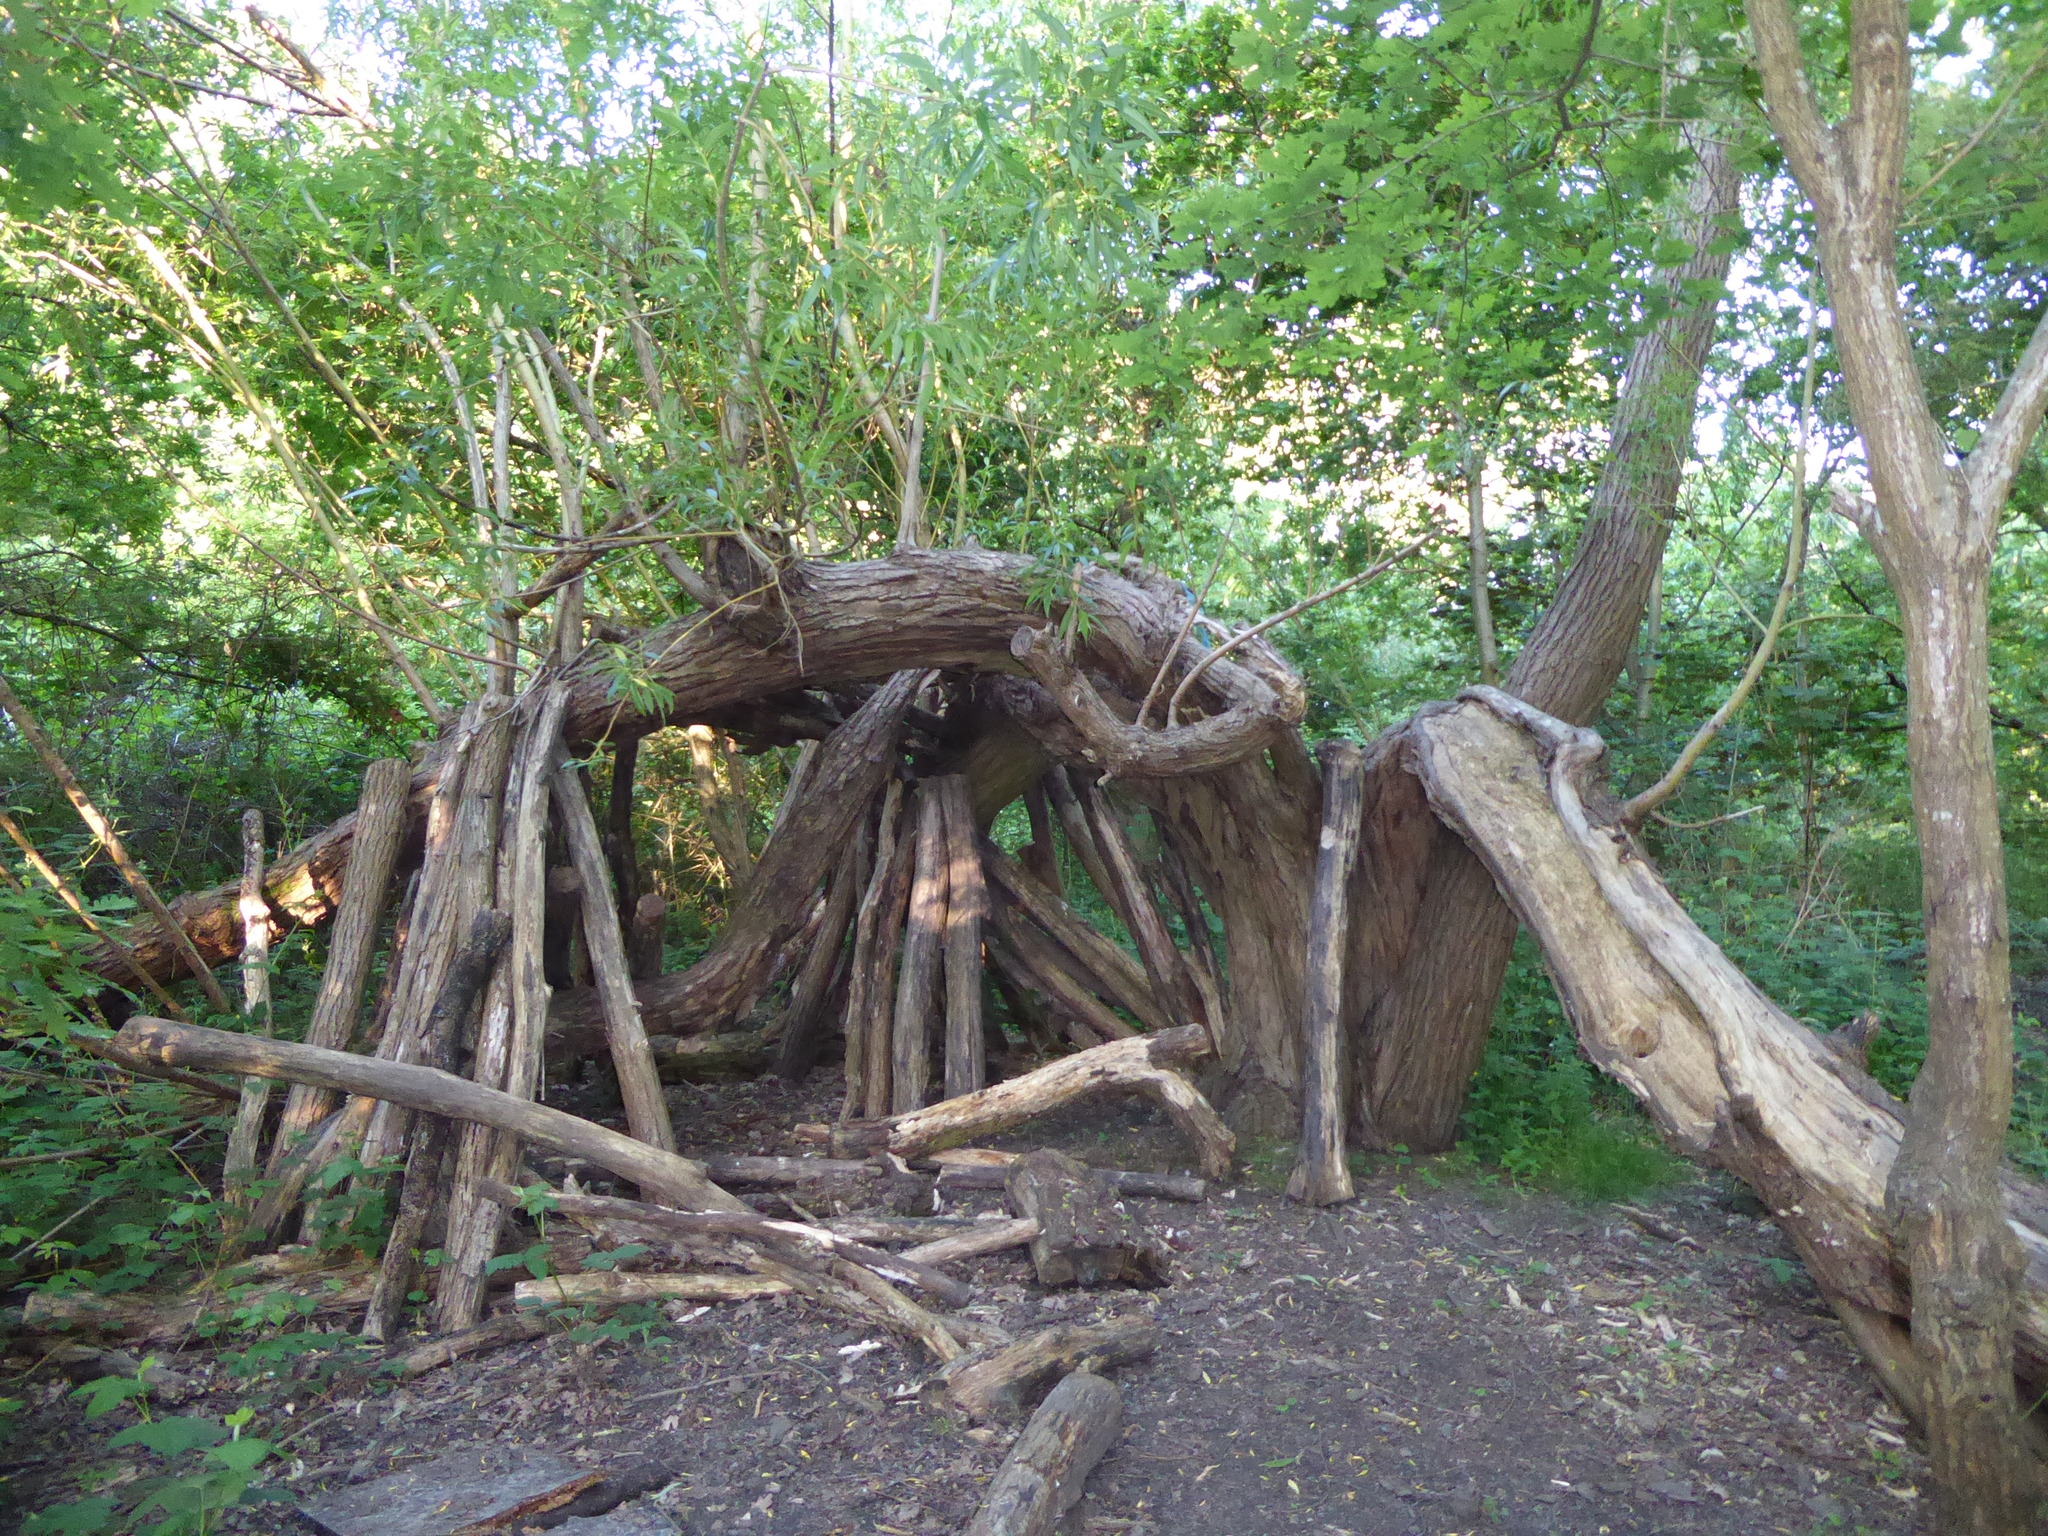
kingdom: Plantae
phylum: Tracheophyta
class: Magnoliopsida
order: Malpighiales
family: Salicaceae
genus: Salix
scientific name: Salix fragilis
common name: Crack willow
